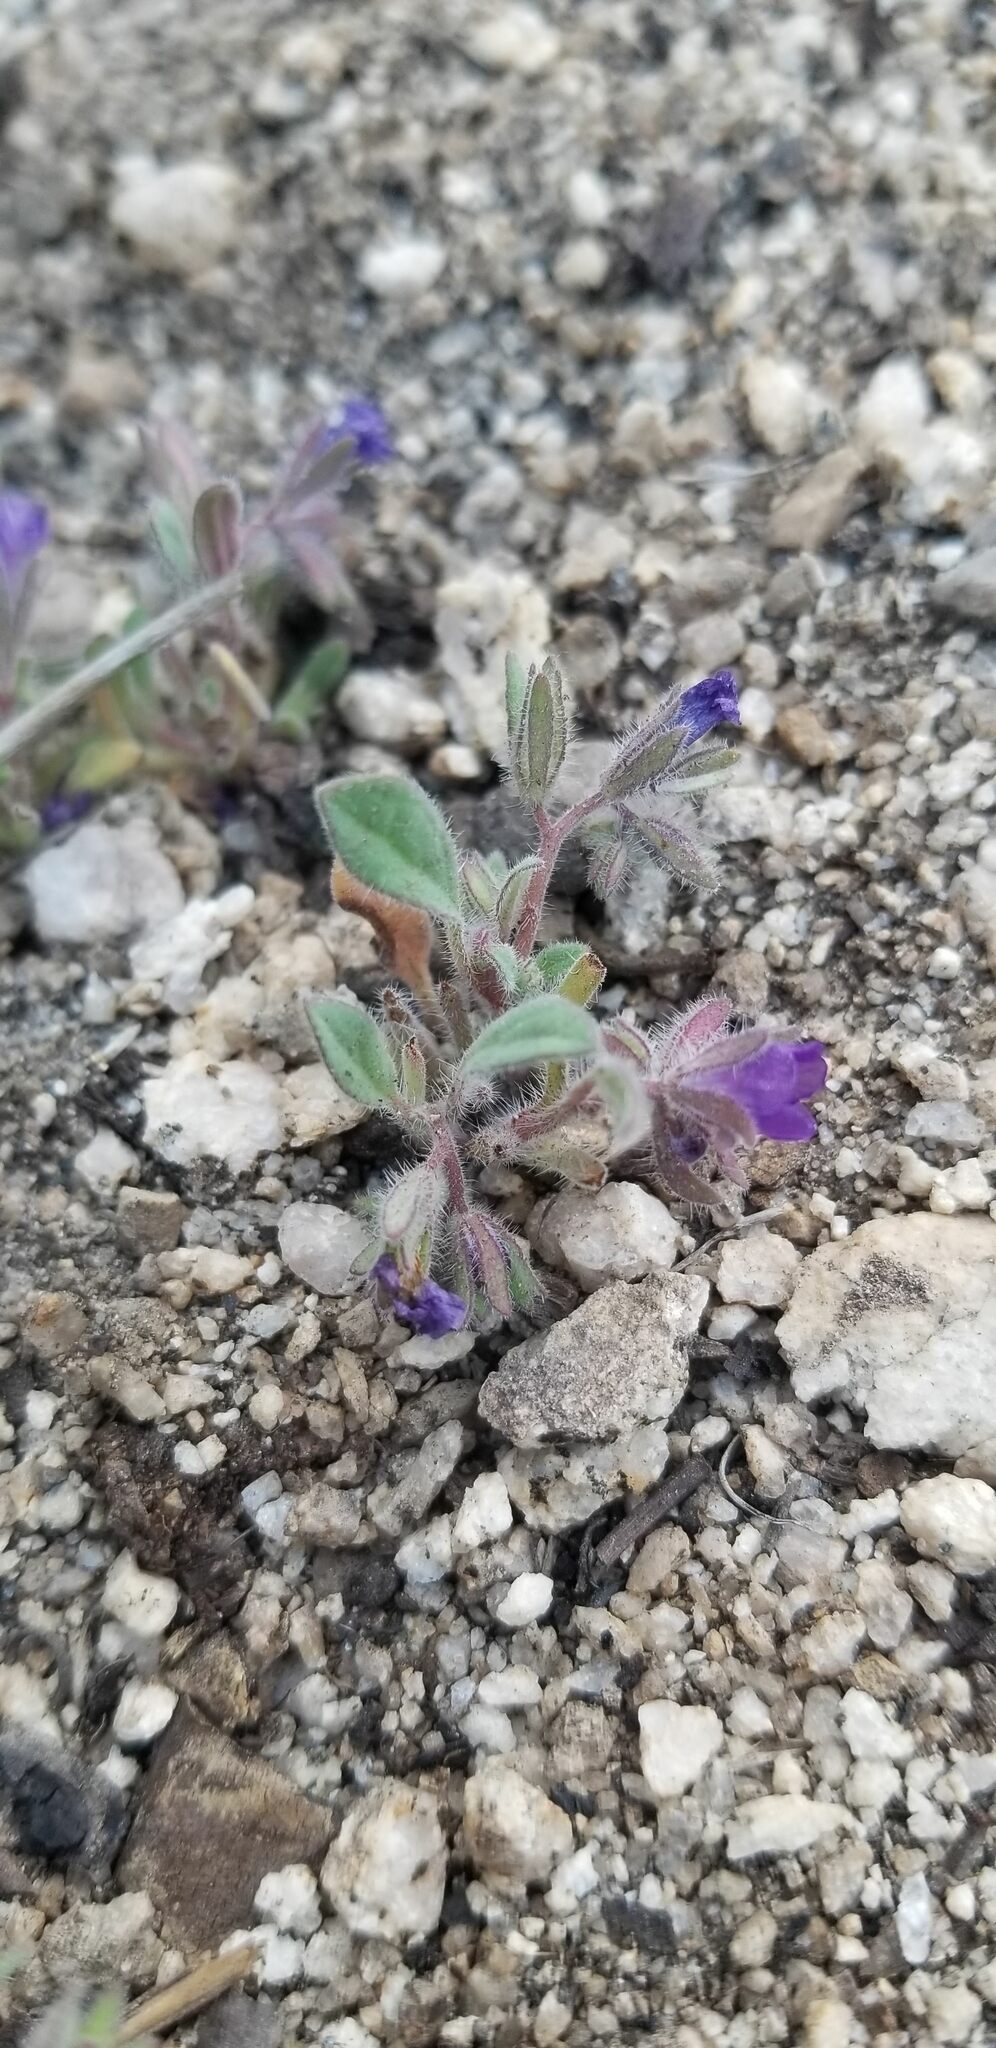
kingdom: Plantae
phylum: Tracheophyta
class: Magnoliopsida
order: Boraginales
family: Hydrophyllaceae
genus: Phacelia
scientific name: Phacelia curvipes
